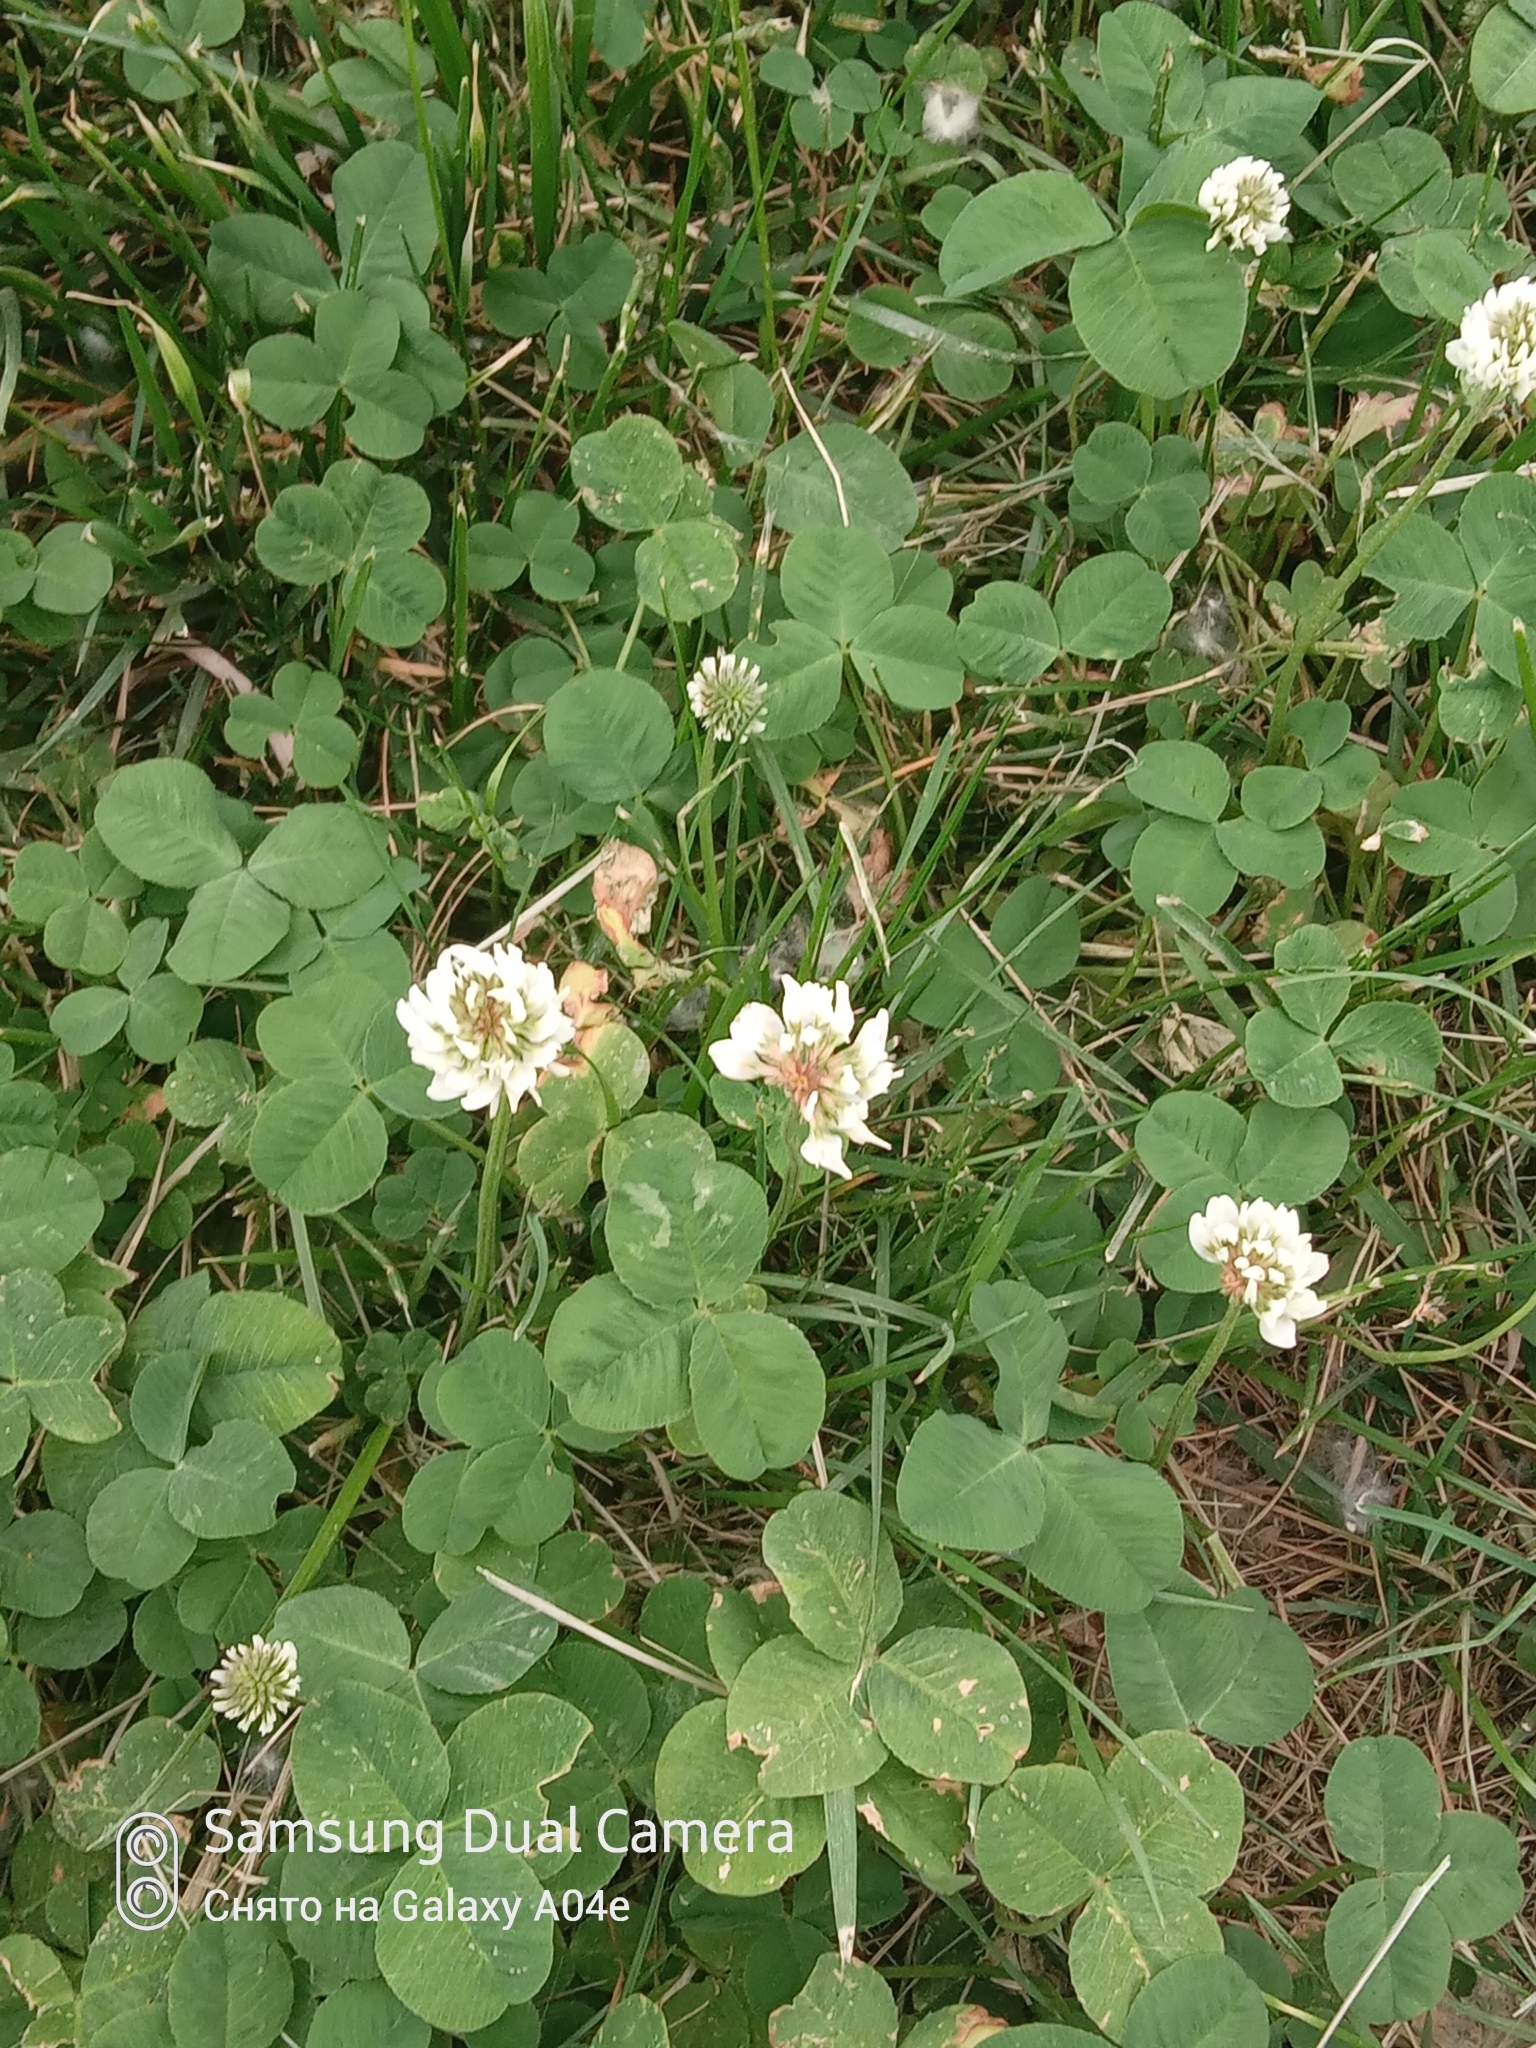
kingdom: Plantae
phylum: Tracheophyta
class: Magnoliopsida
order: Fabales
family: Fabaceae
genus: Trifolium
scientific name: Trifolium repens
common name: White clover
